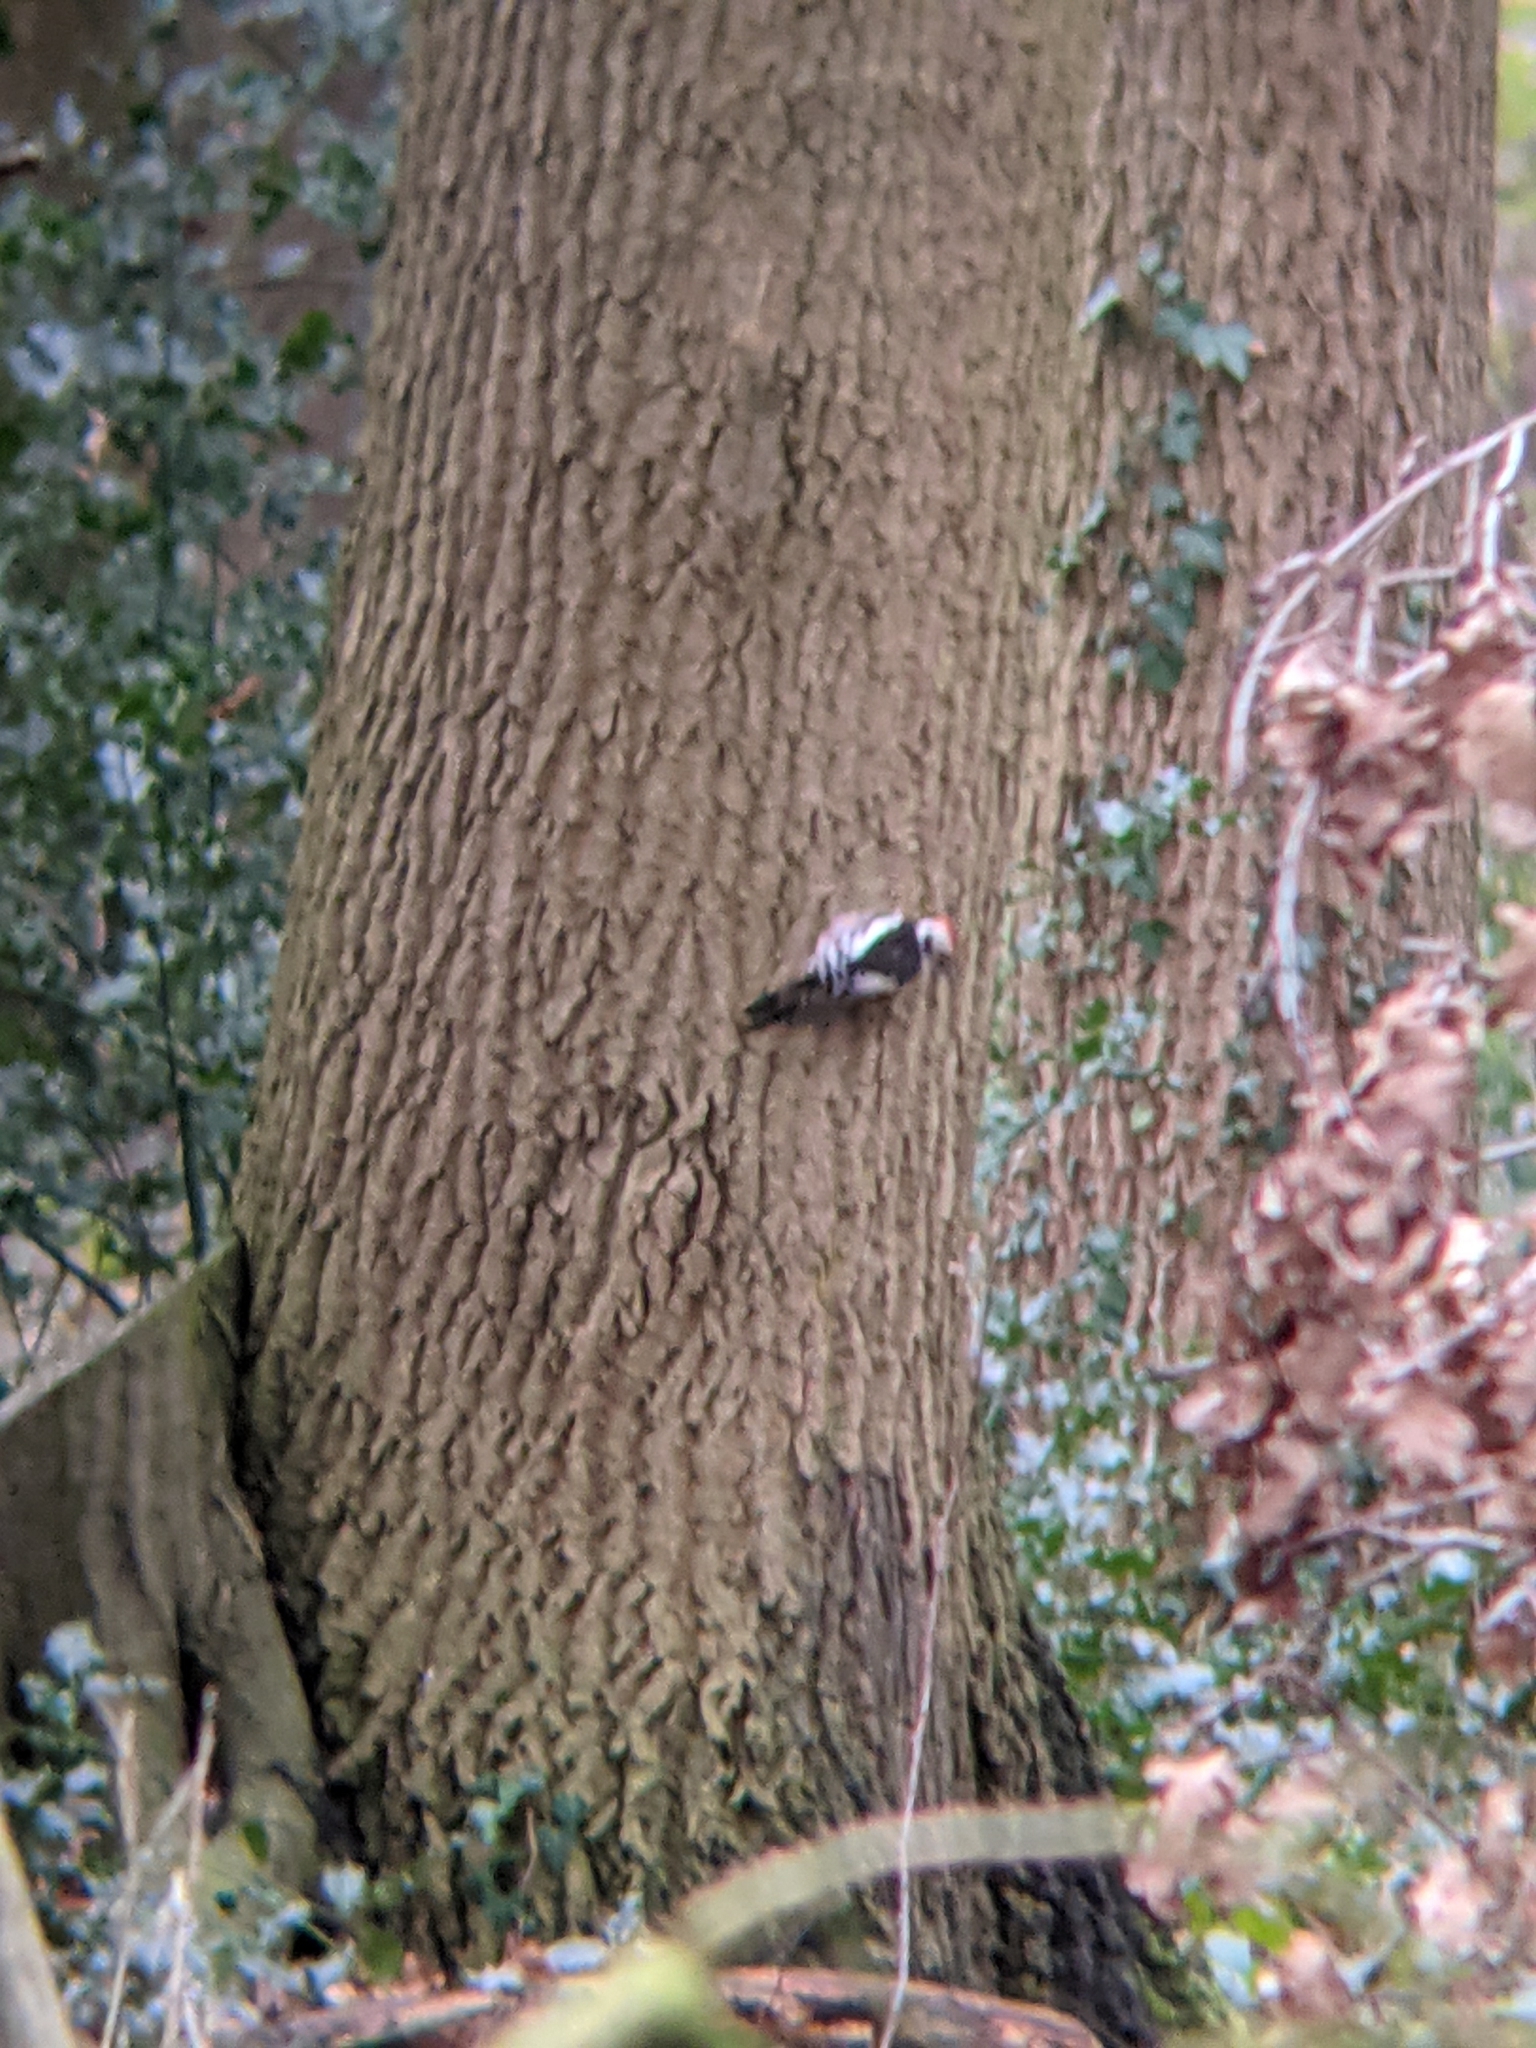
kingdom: Animalia
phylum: Chordata
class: Aves
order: Piciformes
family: Picidae
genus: Dendrocoptes
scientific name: Dendrocoptes medius
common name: Middle spotted woodpecker
